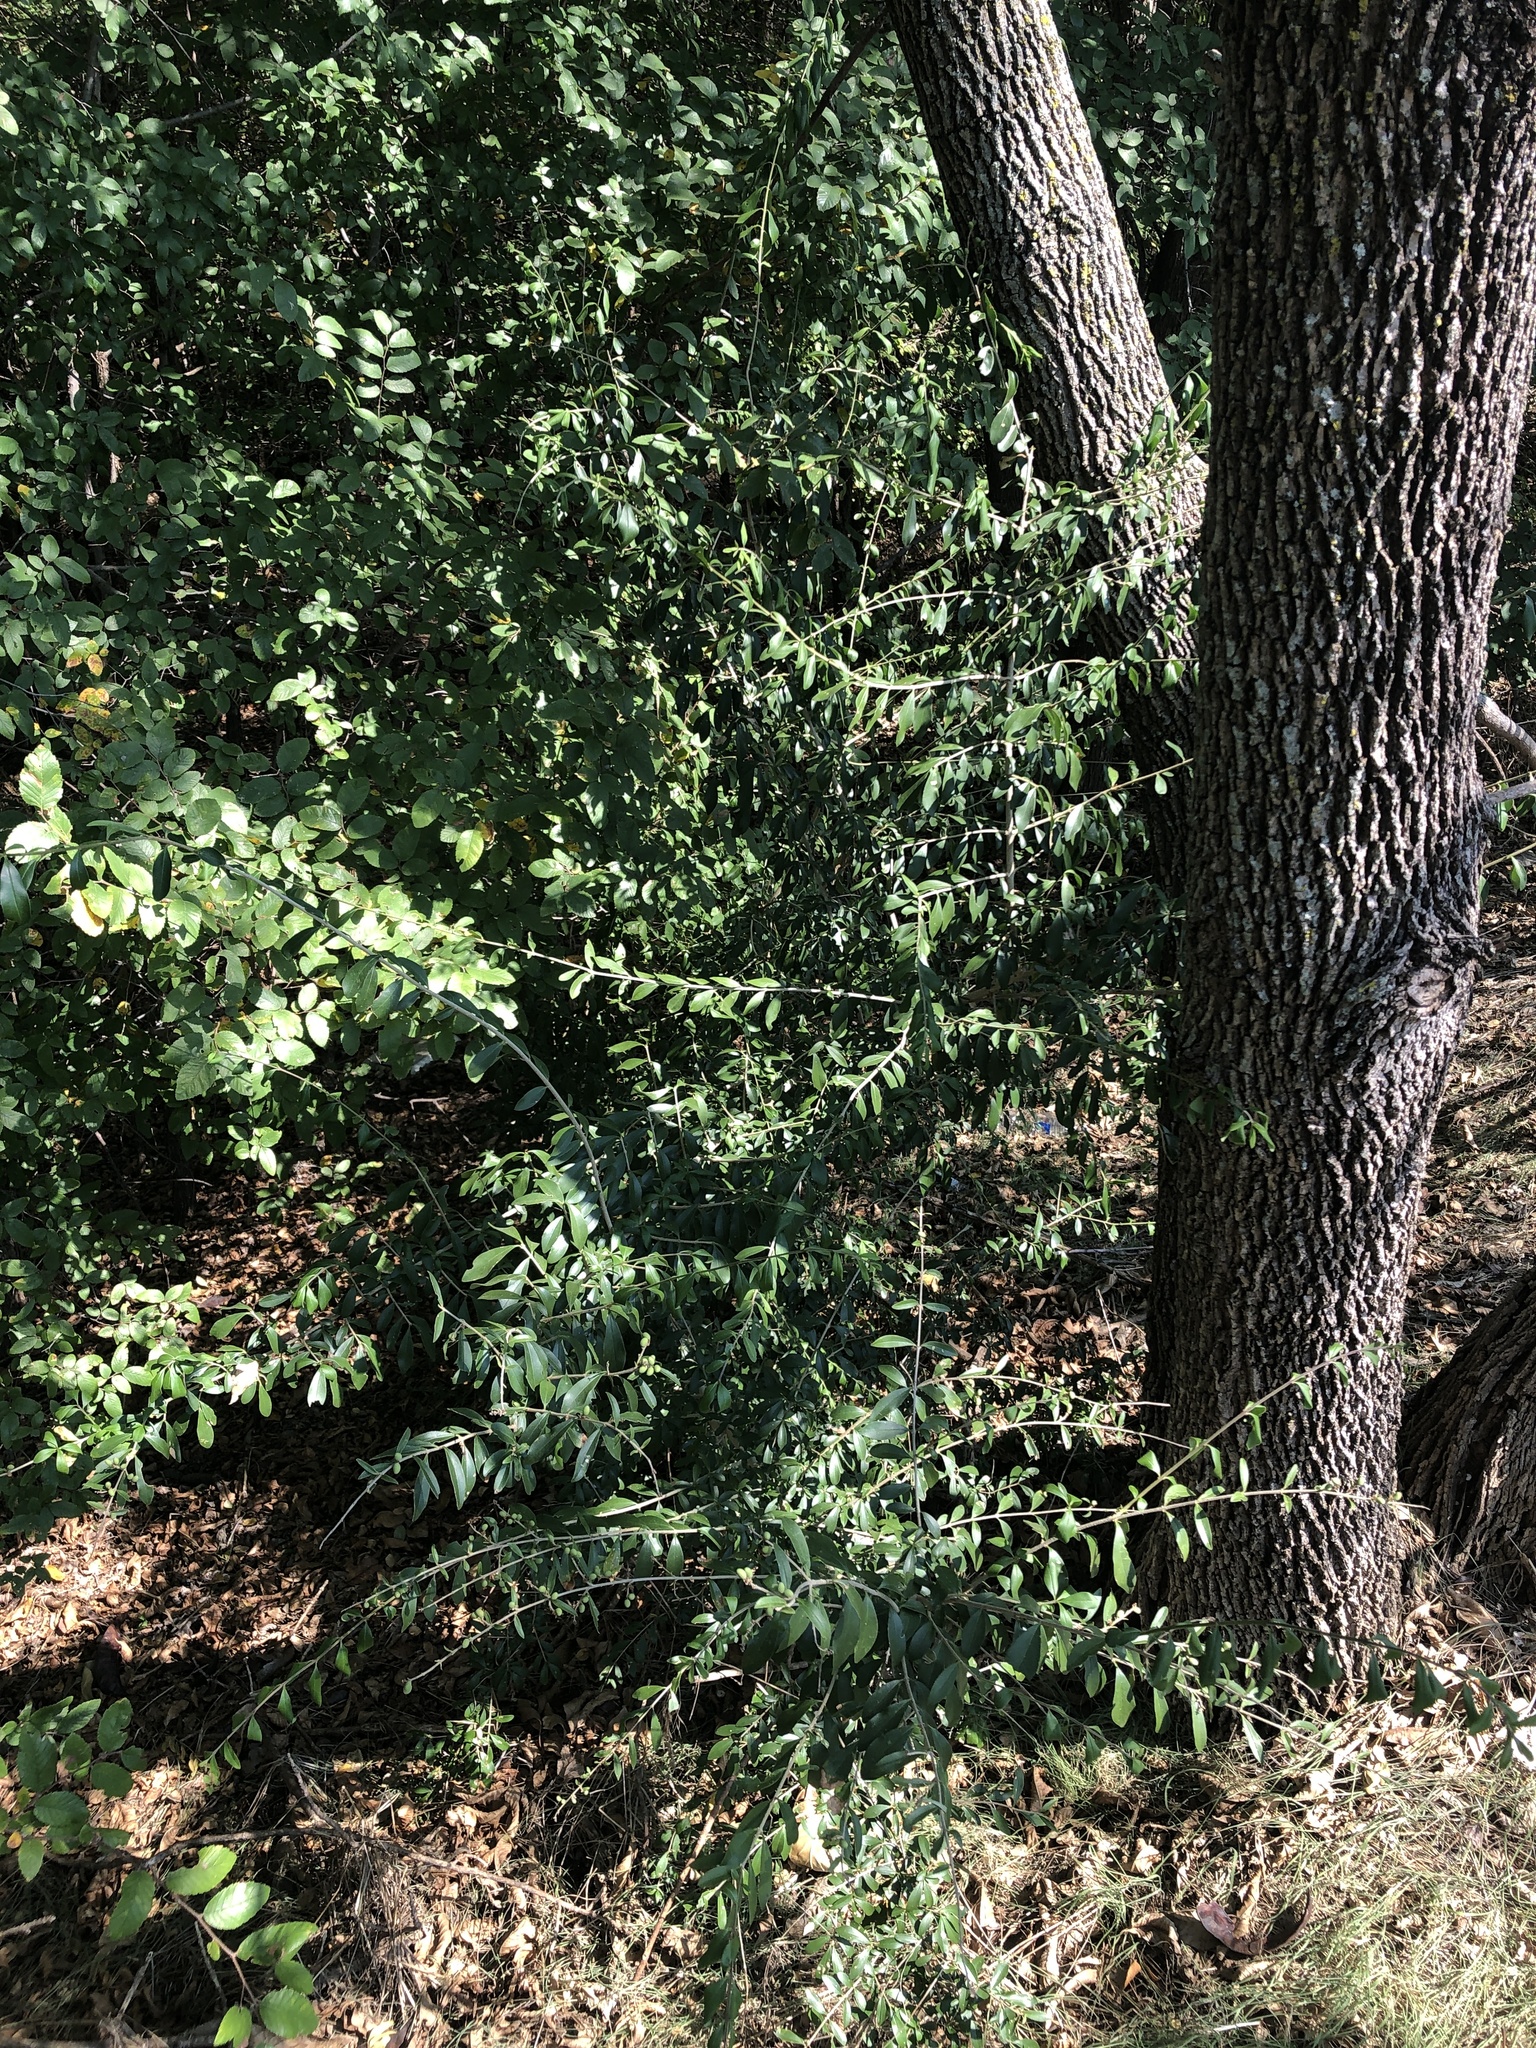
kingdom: Plantae
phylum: Tracheophyta
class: Magnoliopsida
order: Lamiales
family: Oleaceae
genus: Ligustrum
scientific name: Ligustrum quihoui
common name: Waxyleaf privet
